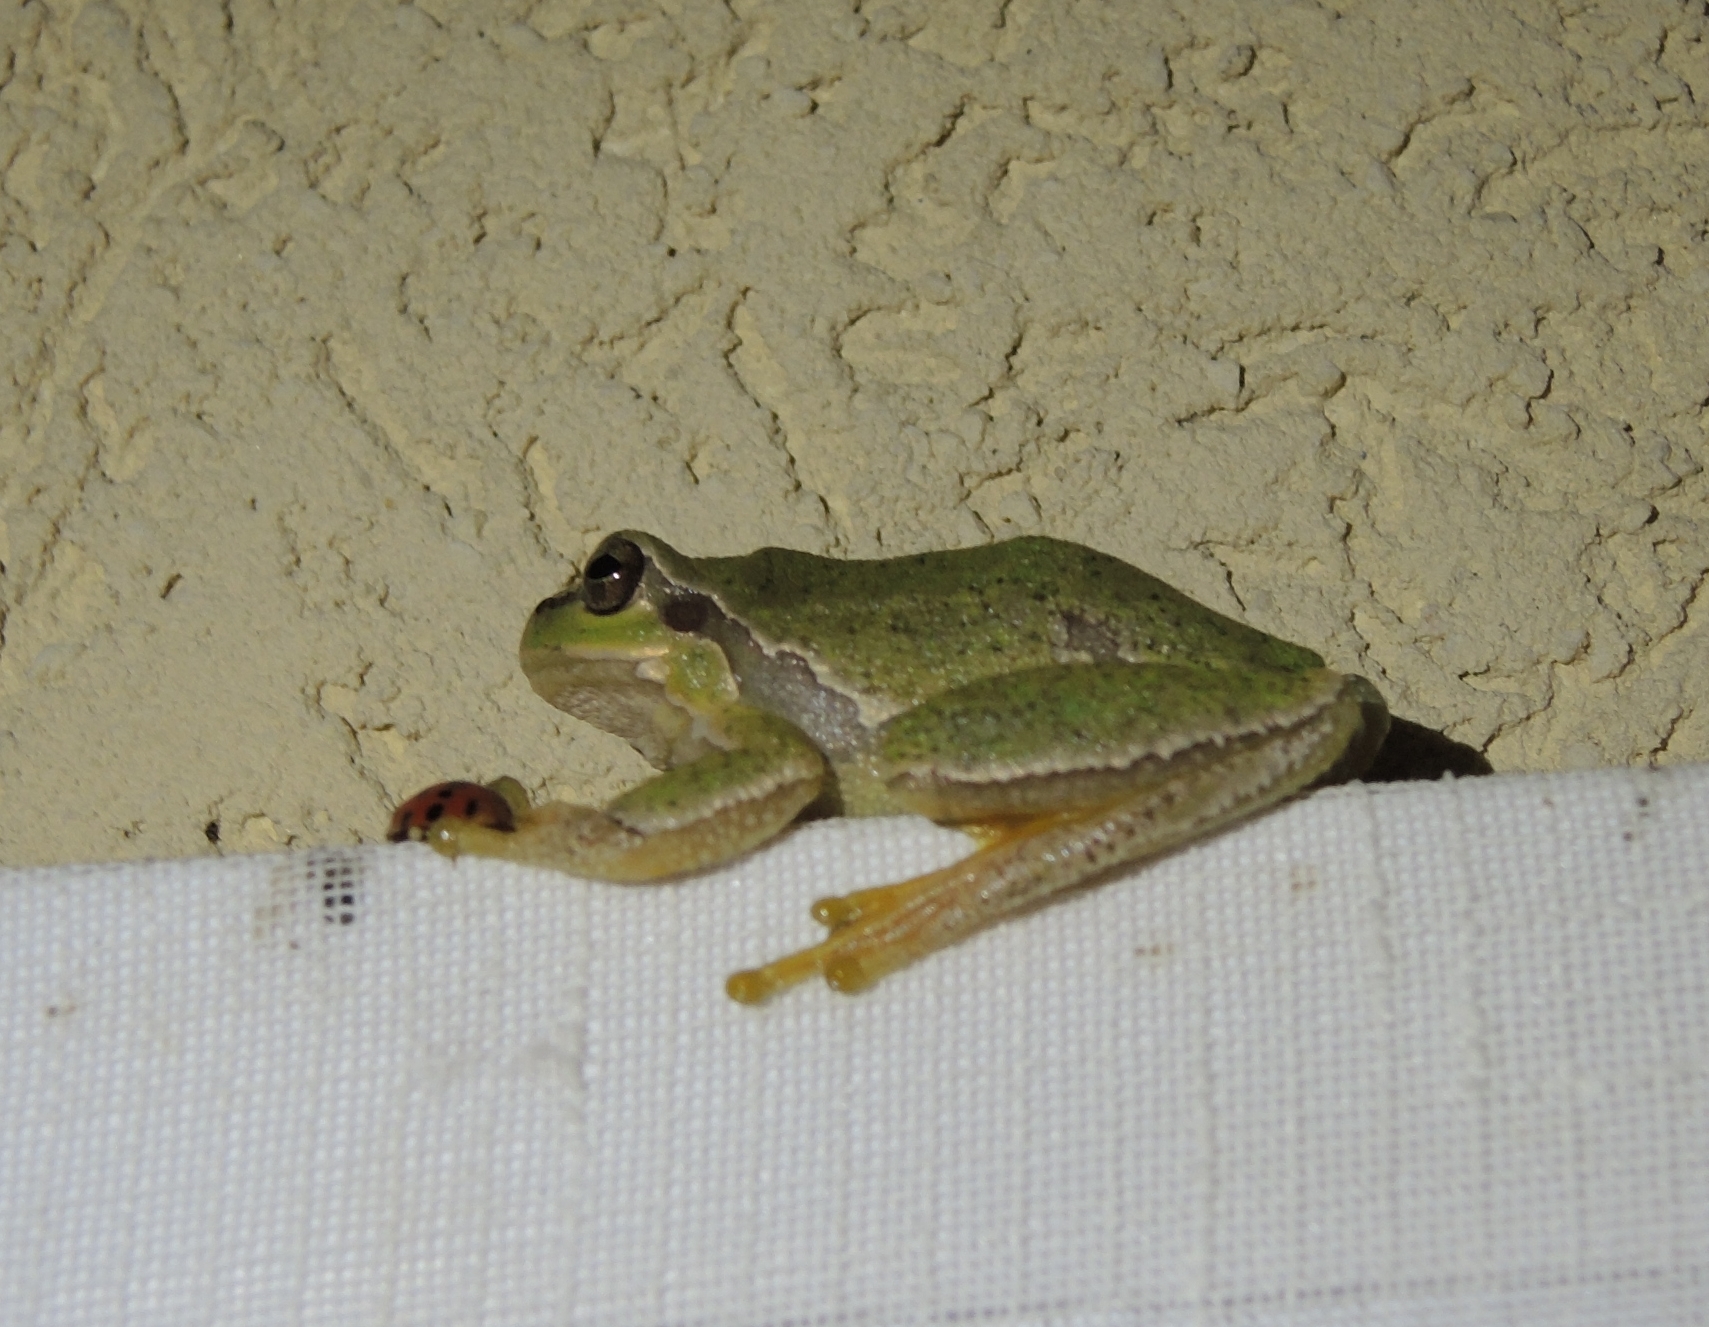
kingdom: Animalia
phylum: Chordata
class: Amphibia
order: Anura
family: Hylidae
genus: Hyla
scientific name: Hyla orientalis
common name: Caucasian treefrog
